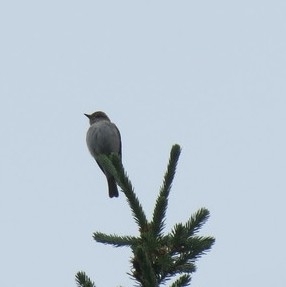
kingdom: Animalia
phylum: Chordata
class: Aves
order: Passeriformes
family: Muscicapidae
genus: Muscicapa
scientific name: Muscicapa striata
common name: Spotted flycatcher
